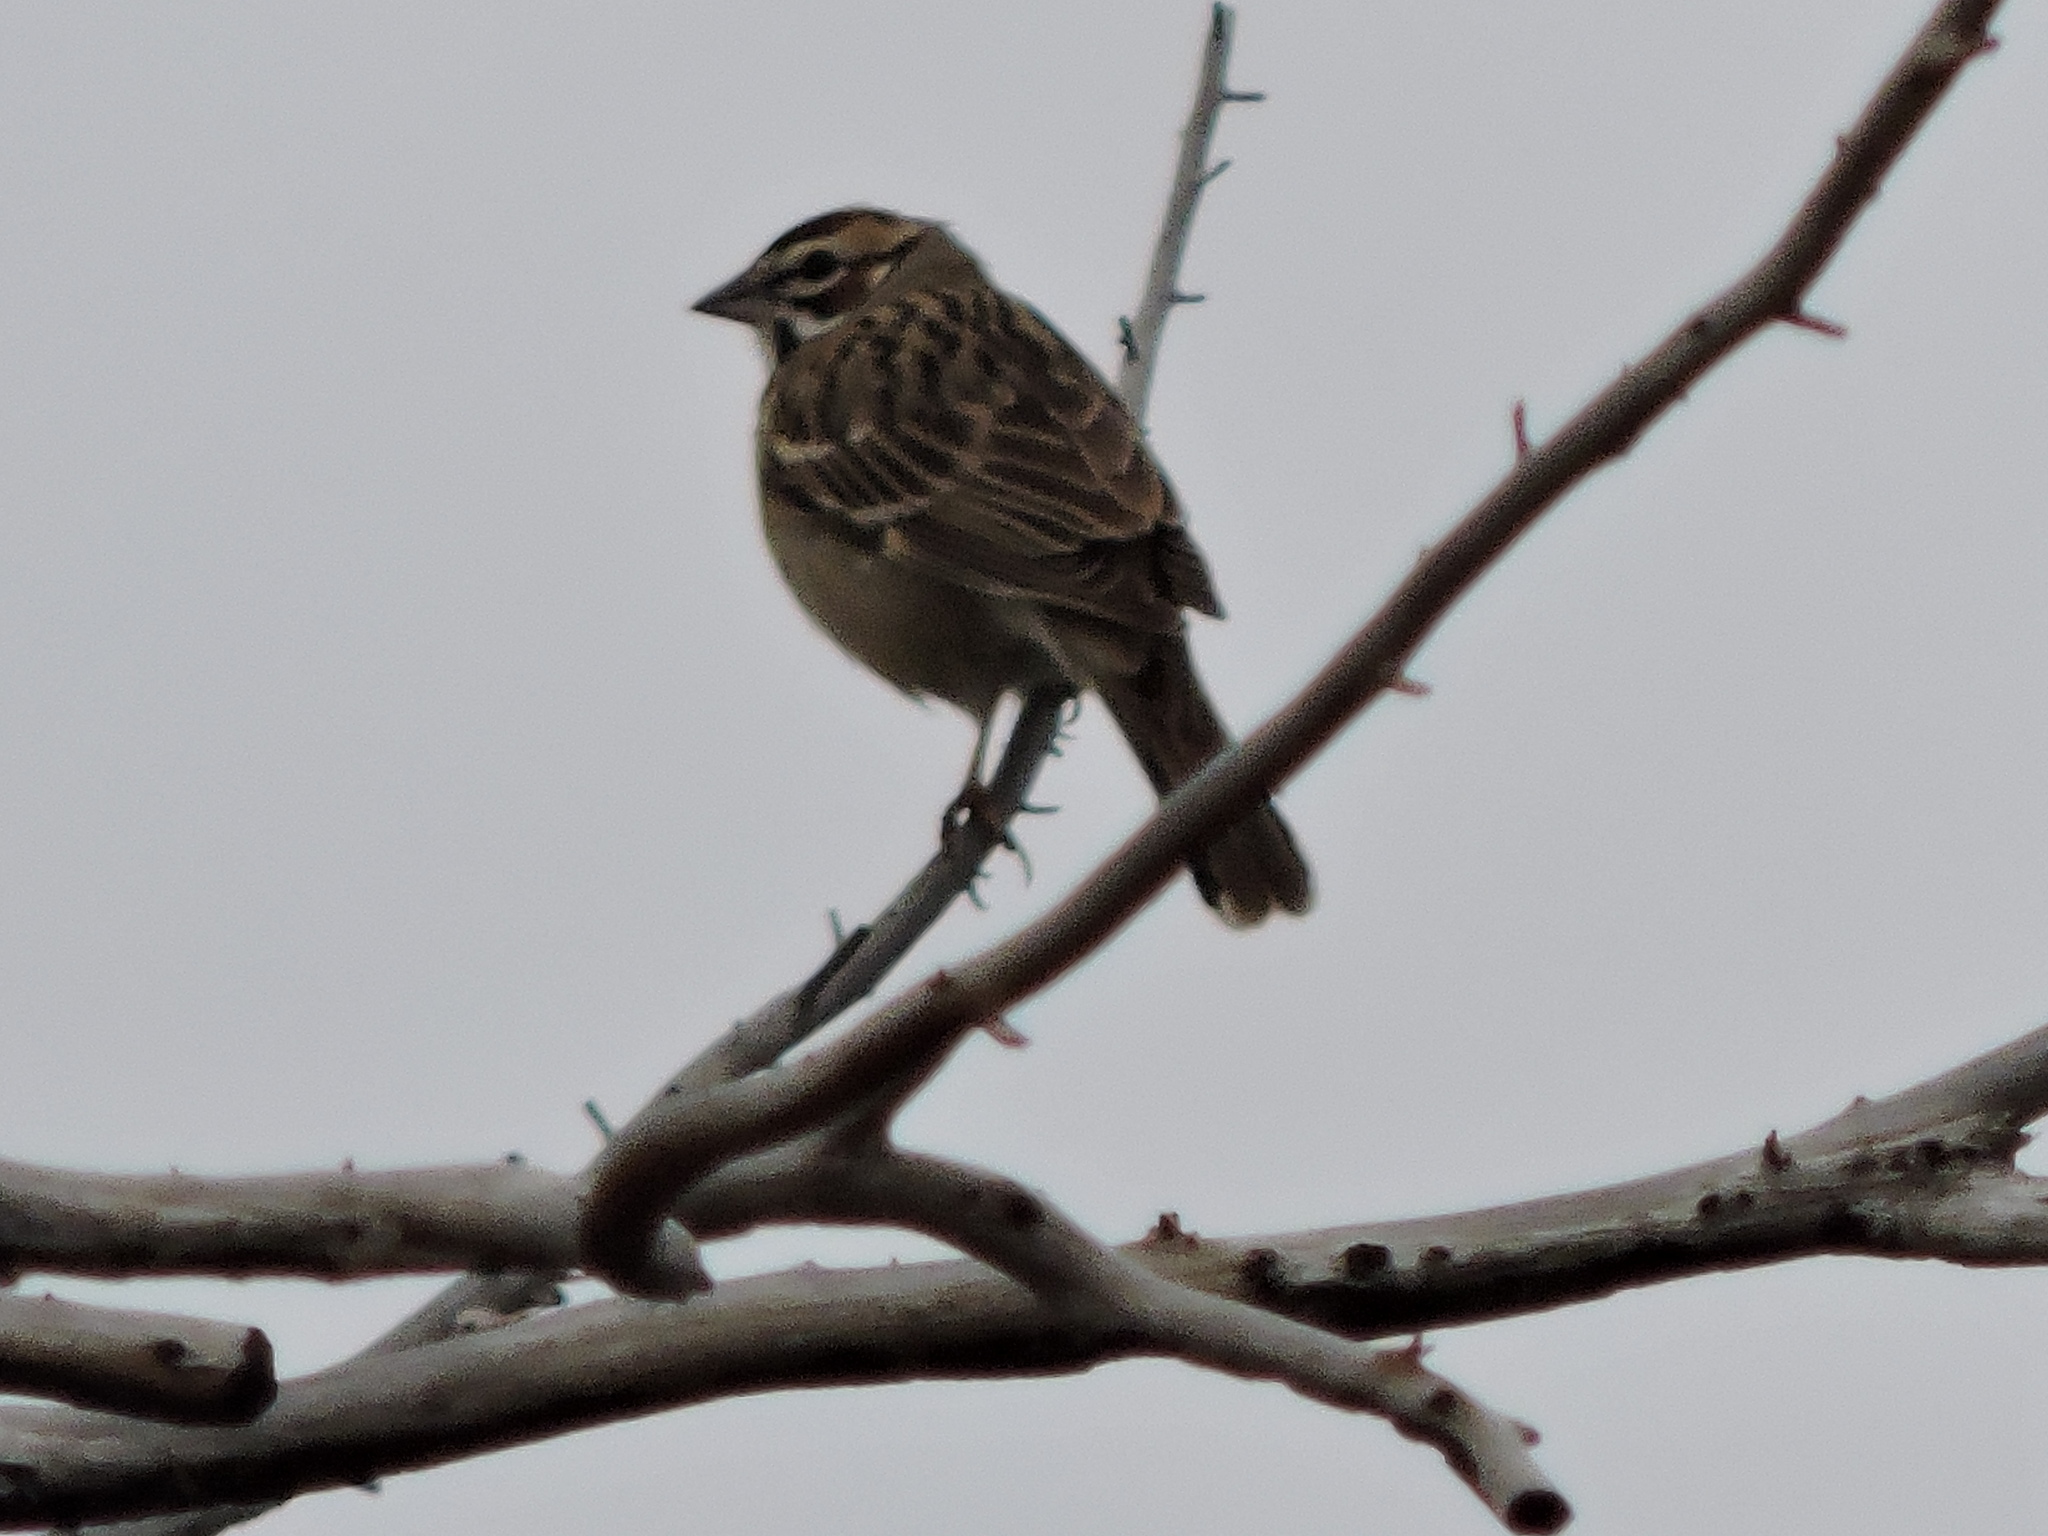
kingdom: Animalia
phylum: Chordata
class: Aves
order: Passeriformes
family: Passerellidae
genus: Chondestes
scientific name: Chondestes grammacus
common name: Lark sparrow
